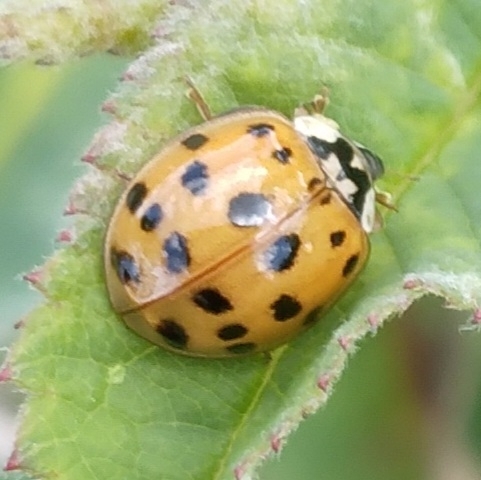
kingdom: Animalia
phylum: Arthropoda
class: Insecta
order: Coleoptera
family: Coccinellidae
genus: Harmonia
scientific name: Harmonia axyridis
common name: Harlequin ladybird
